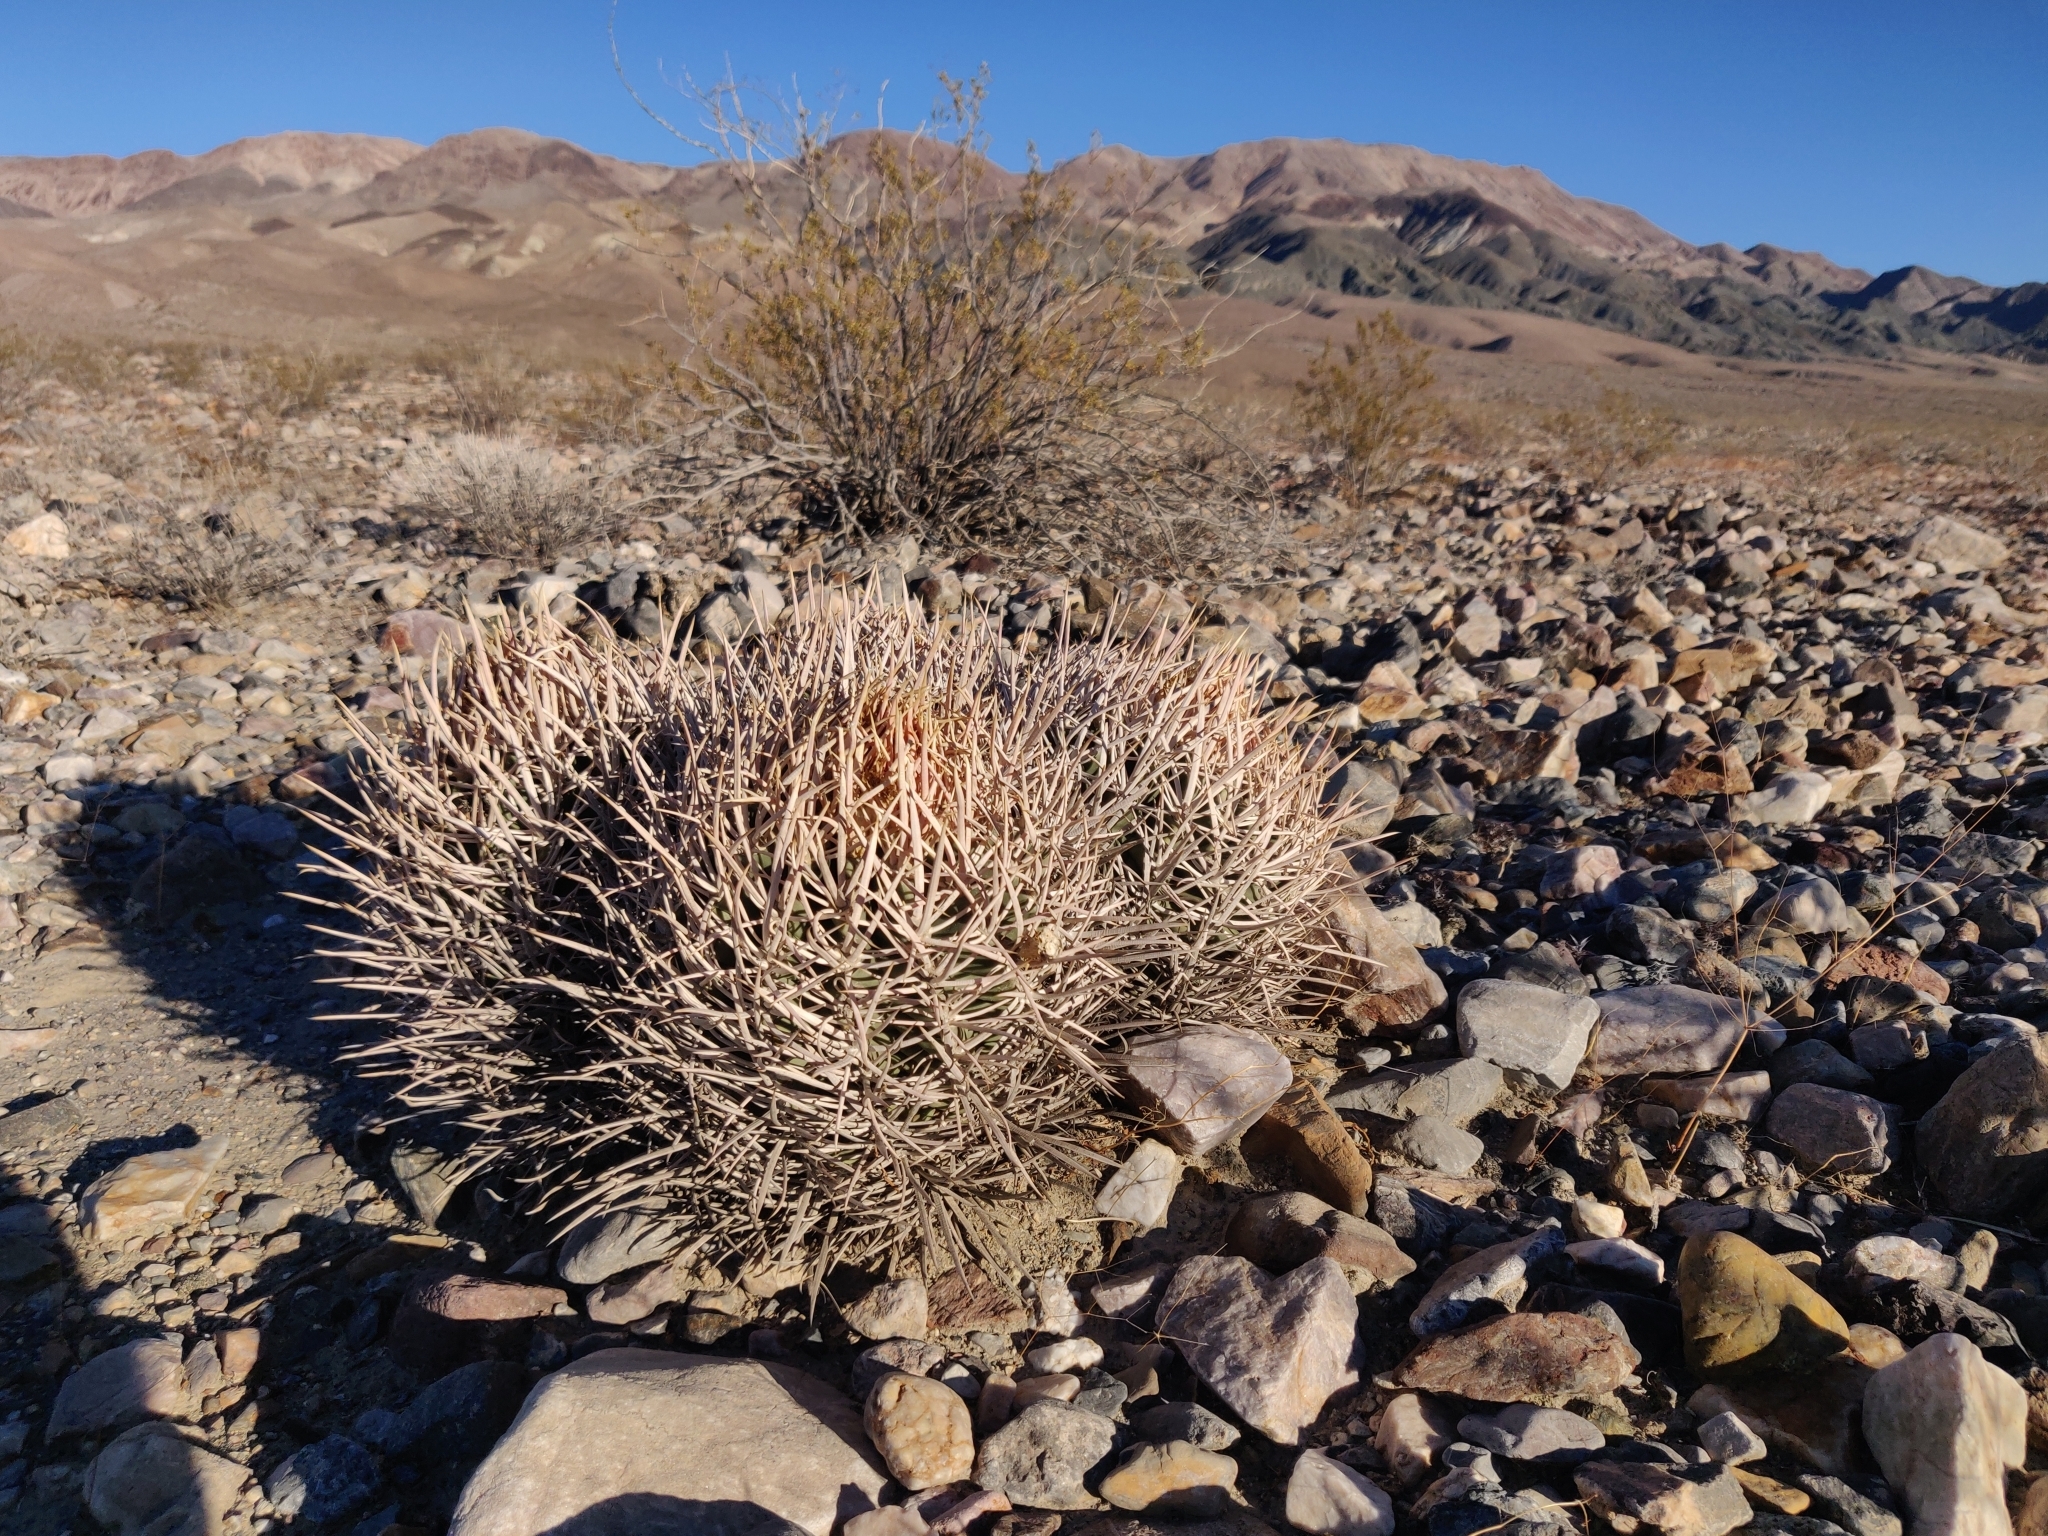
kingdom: Plantae
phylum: Tracheophyta
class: Magnoliopsida
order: Caryophyllales
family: Cactaceae
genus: Echinocactus
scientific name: Echinocactus polycephalus
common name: Cottontop cactus
